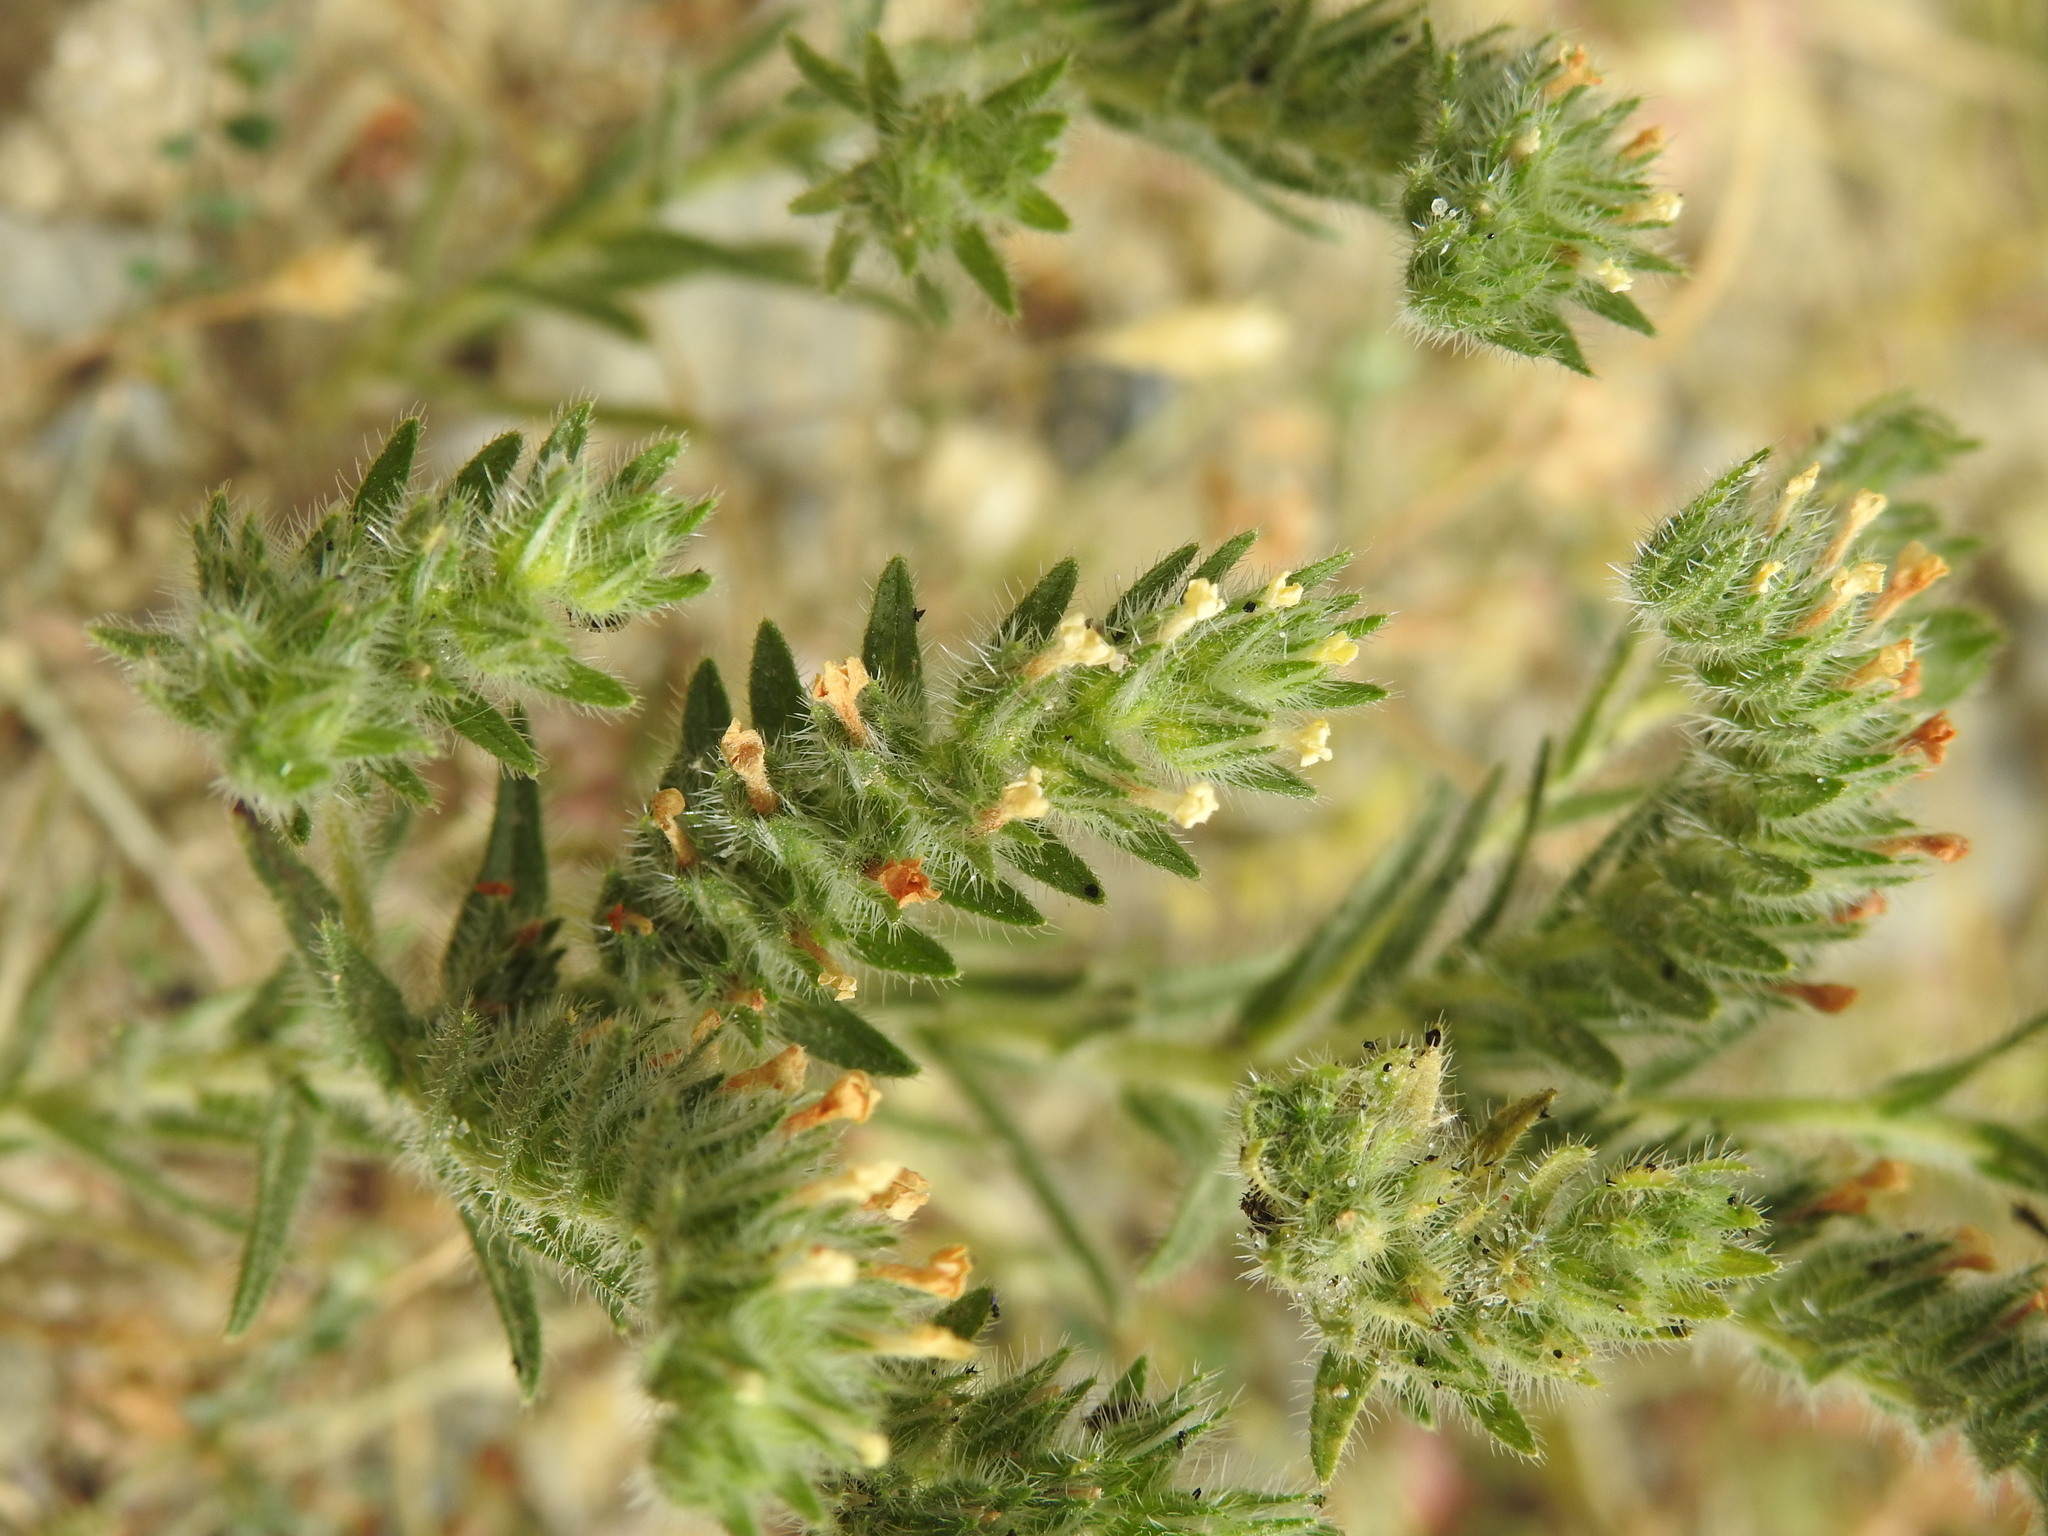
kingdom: Plantae
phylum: Tracheophyta
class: Magnoliopsida
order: Boraginales
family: Boraginaceae
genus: Neatostema
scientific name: Neatostema apulum
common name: Hairy sheepweed
